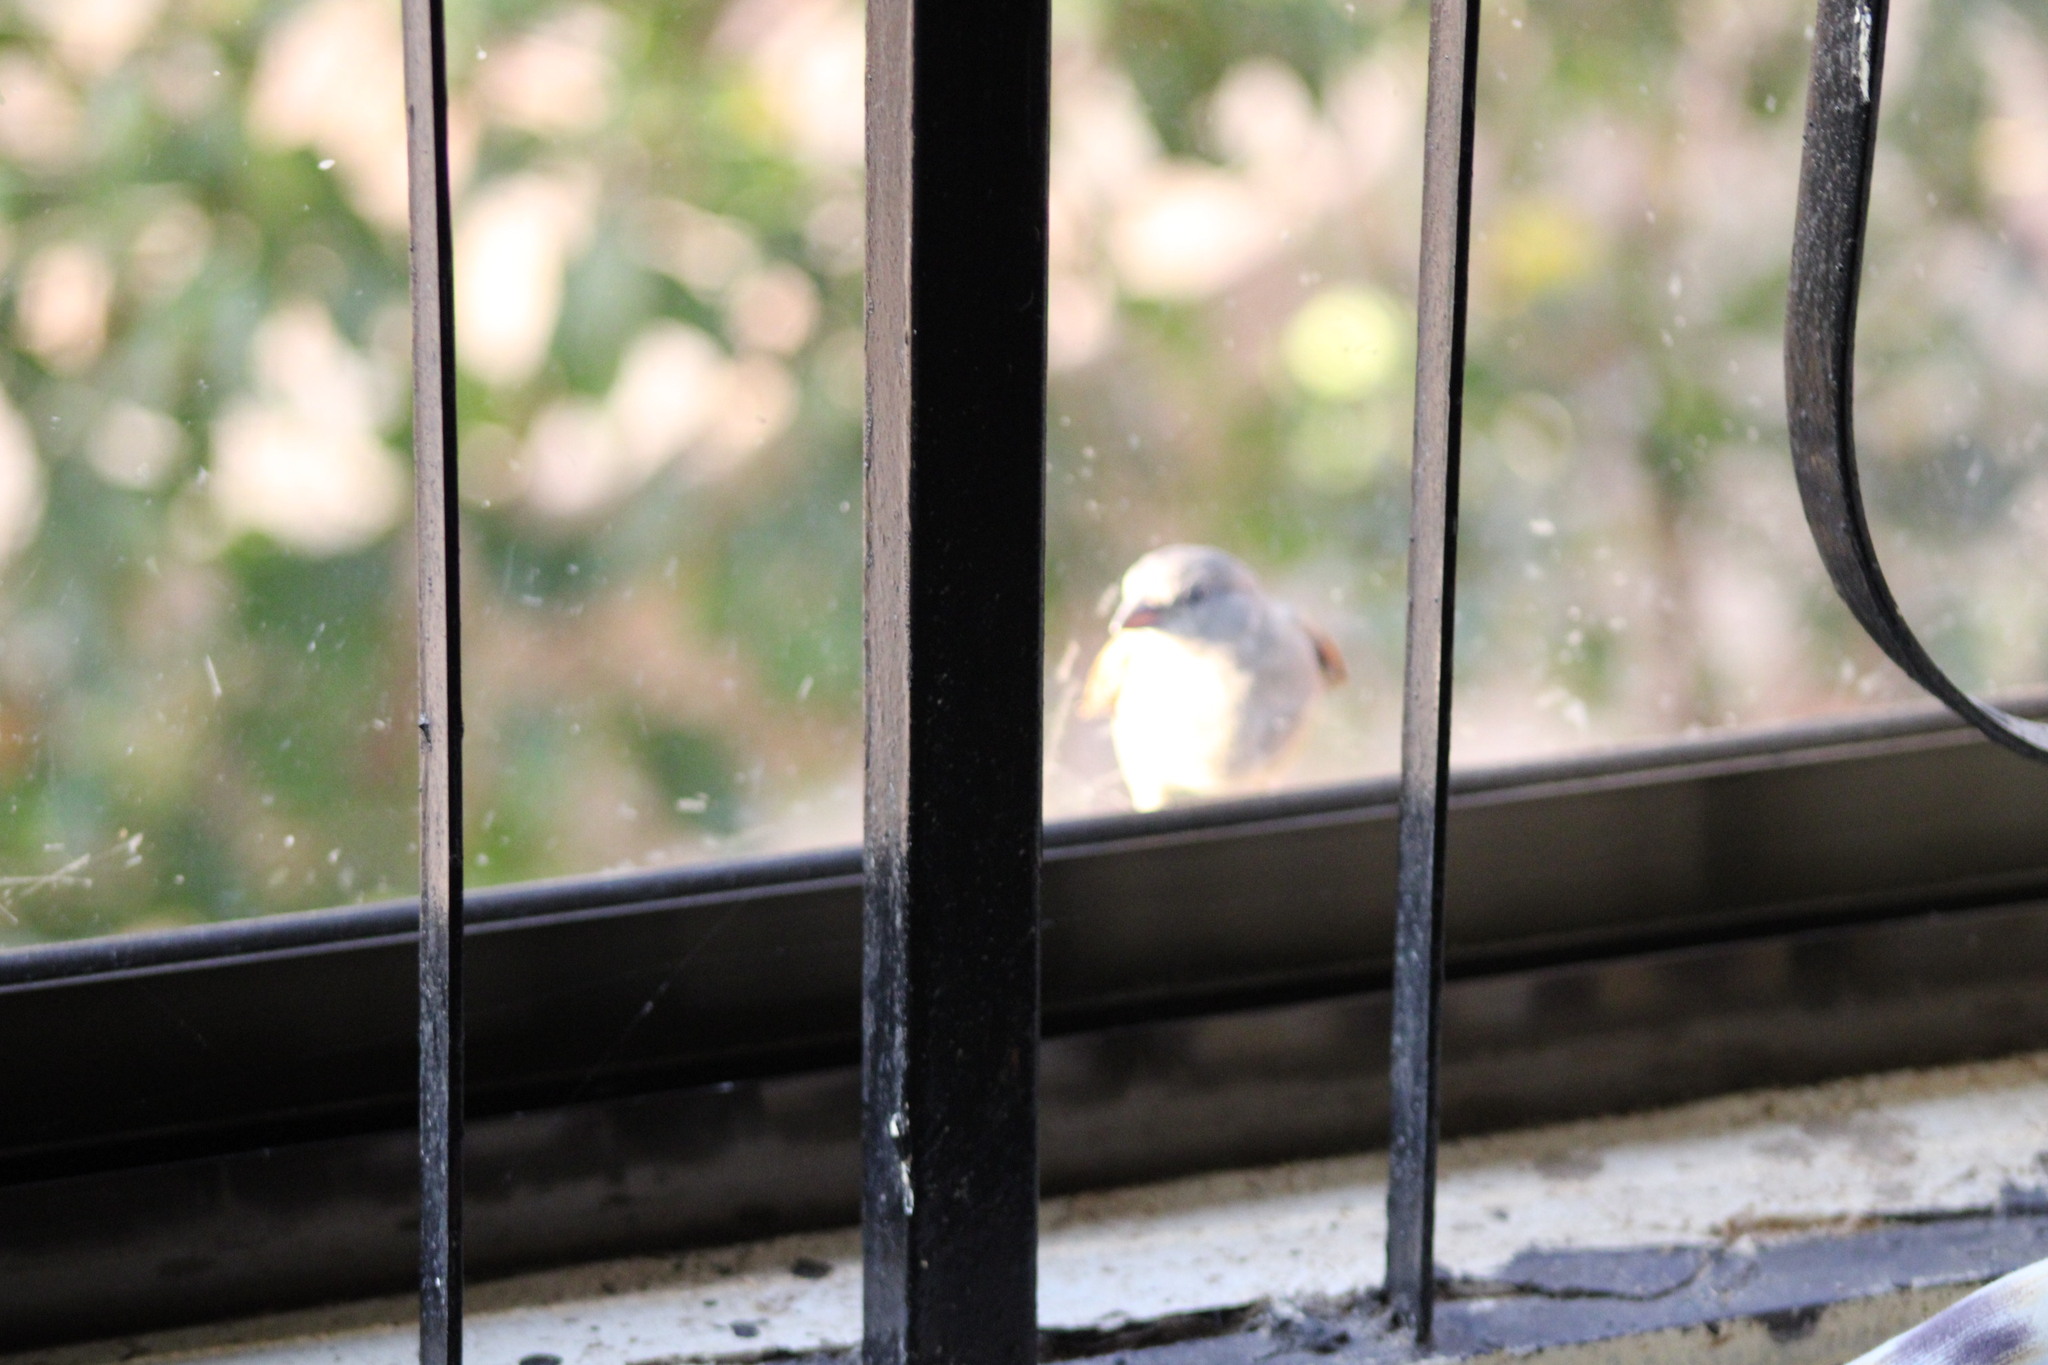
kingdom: Animalia
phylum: Chordata
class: Aves
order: Passeriformes
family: Passeridae
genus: Passer
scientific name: Passer griseus
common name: Northern grey-headed sparrow
